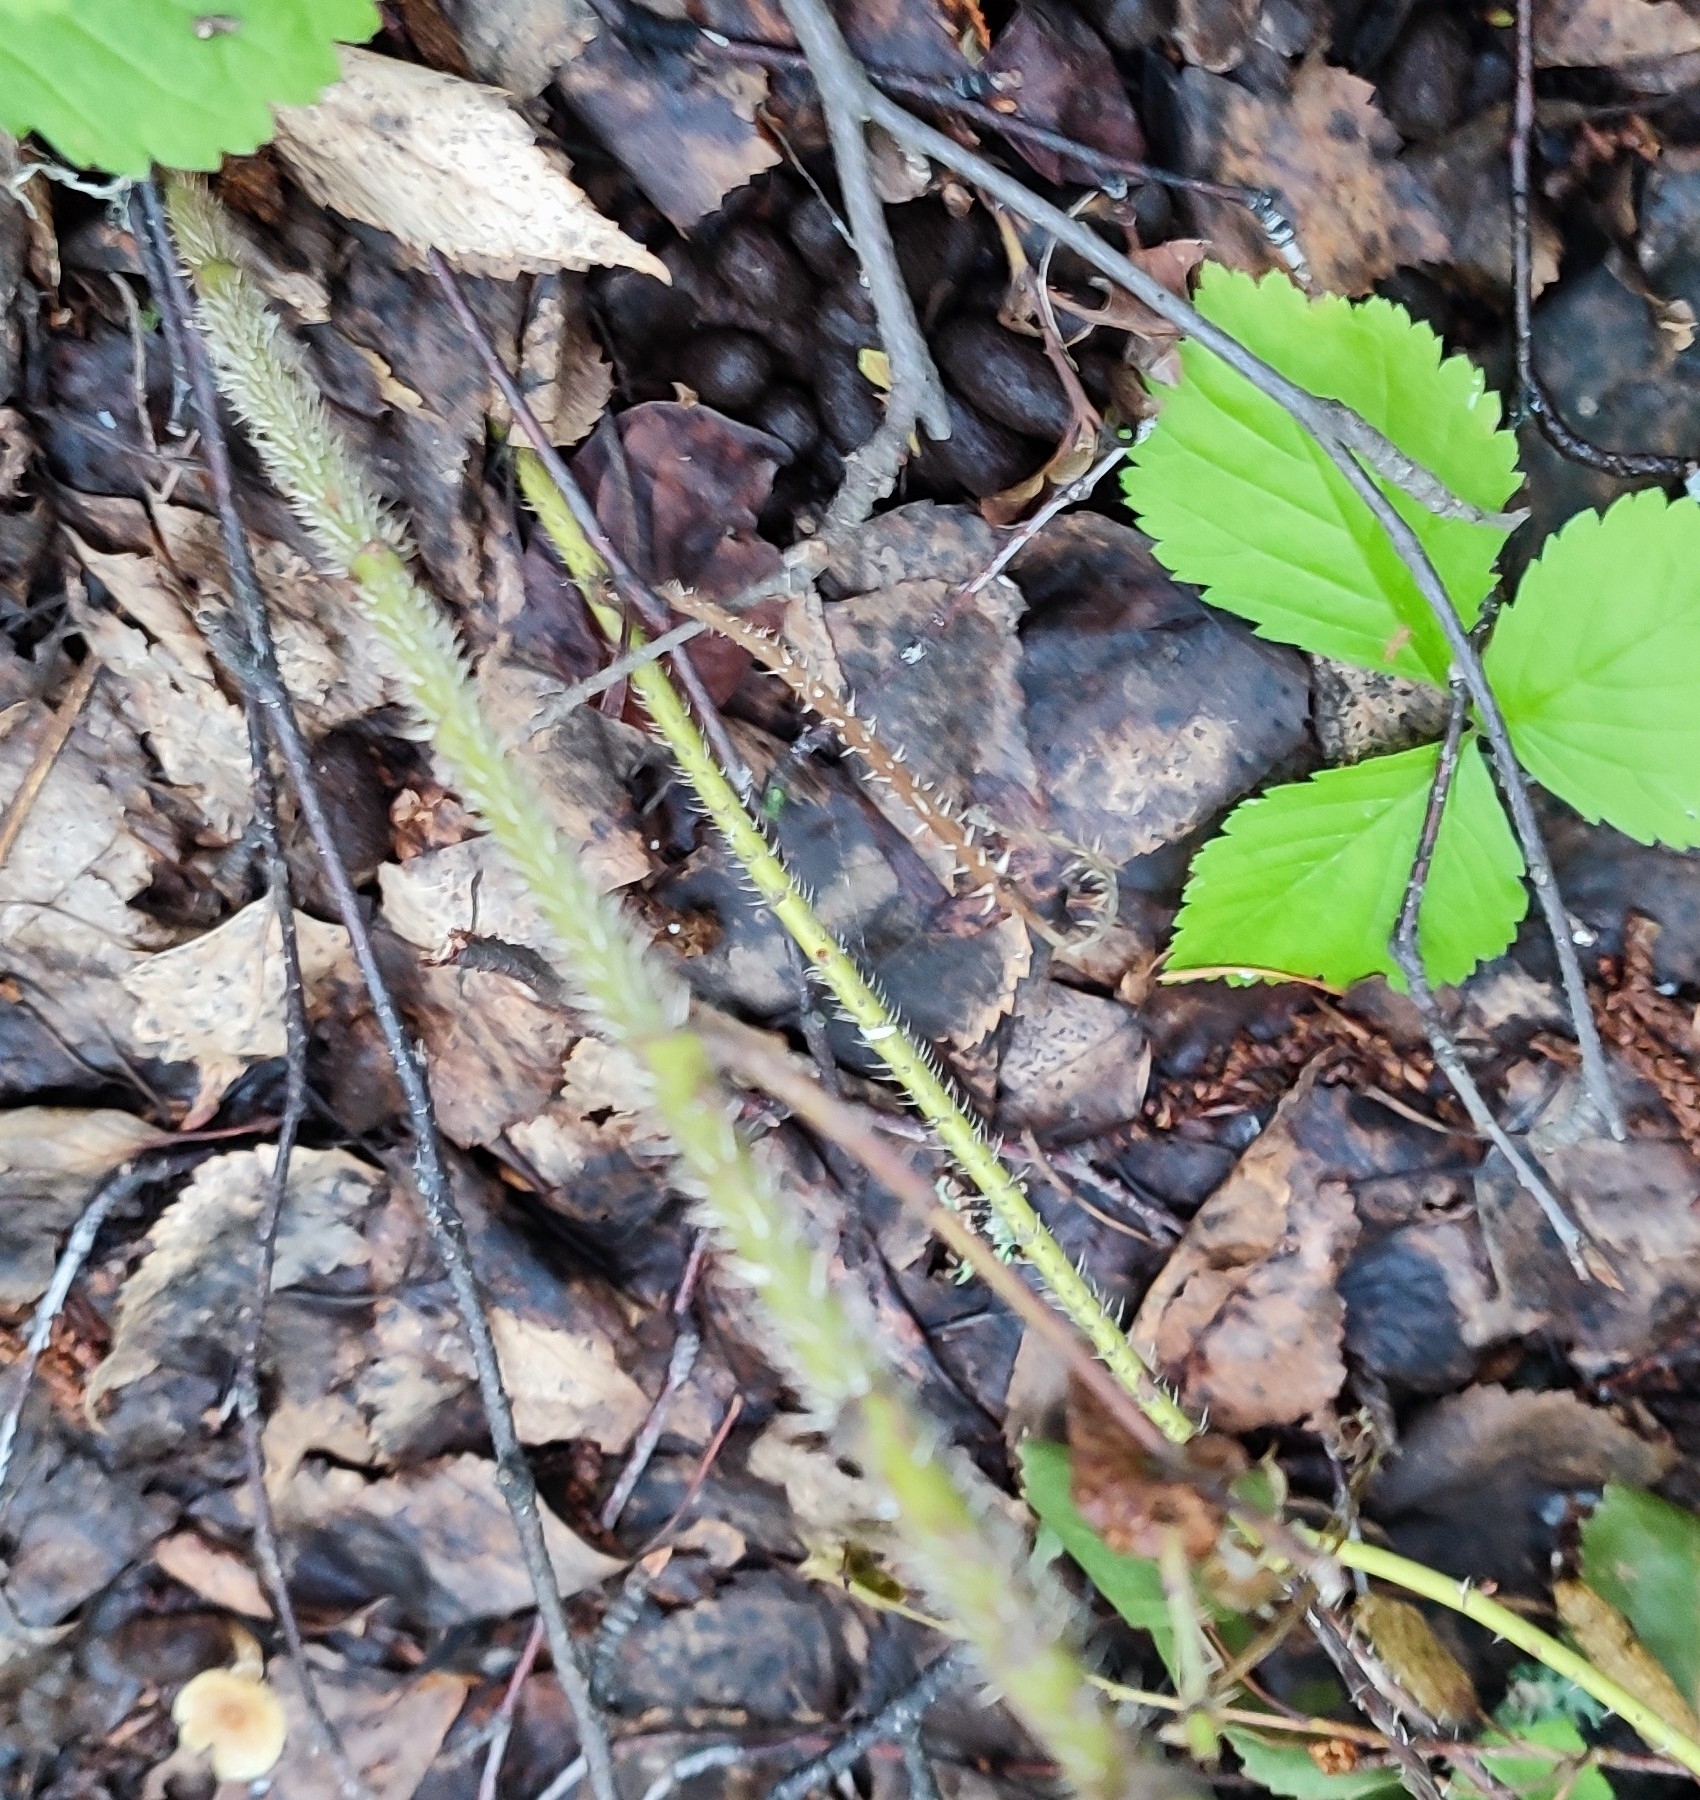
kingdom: Plantae
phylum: Tracheophyta
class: Magnoliopsida
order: Rosales
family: Rosaceae
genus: Rosa
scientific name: Rosa glabrifolia
